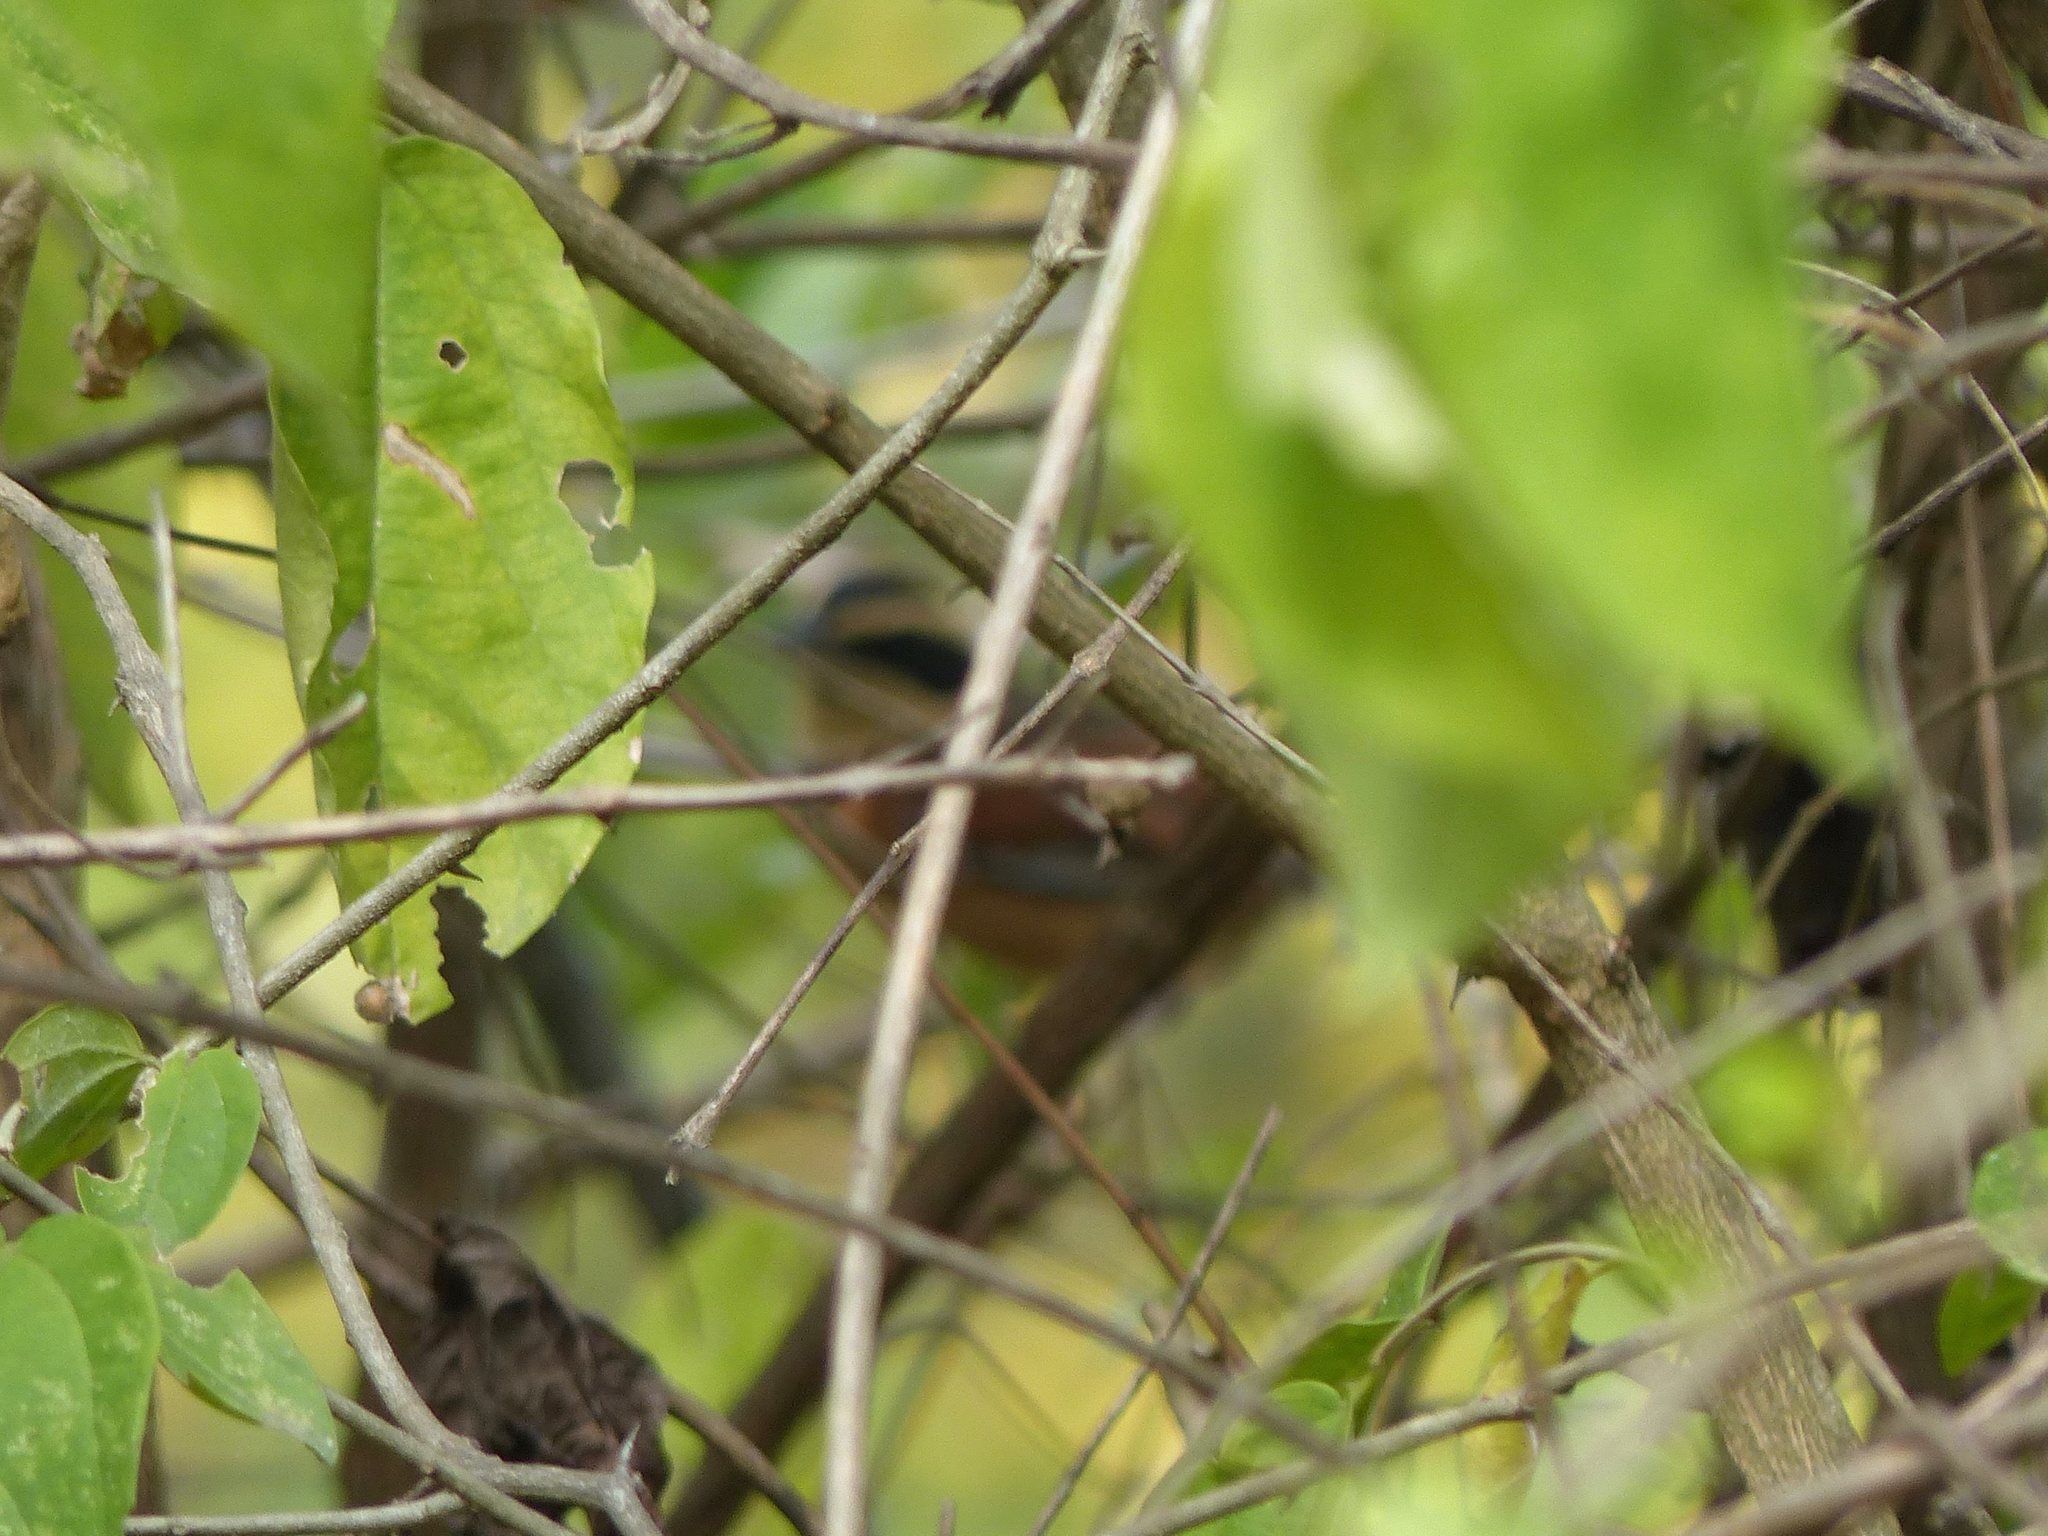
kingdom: Animalia
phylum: Chordata
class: Aves
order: Passeriformes
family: Melanopareiidae
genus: Melanopareia
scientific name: Melanopareia elegans
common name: Elegant crescentchest
